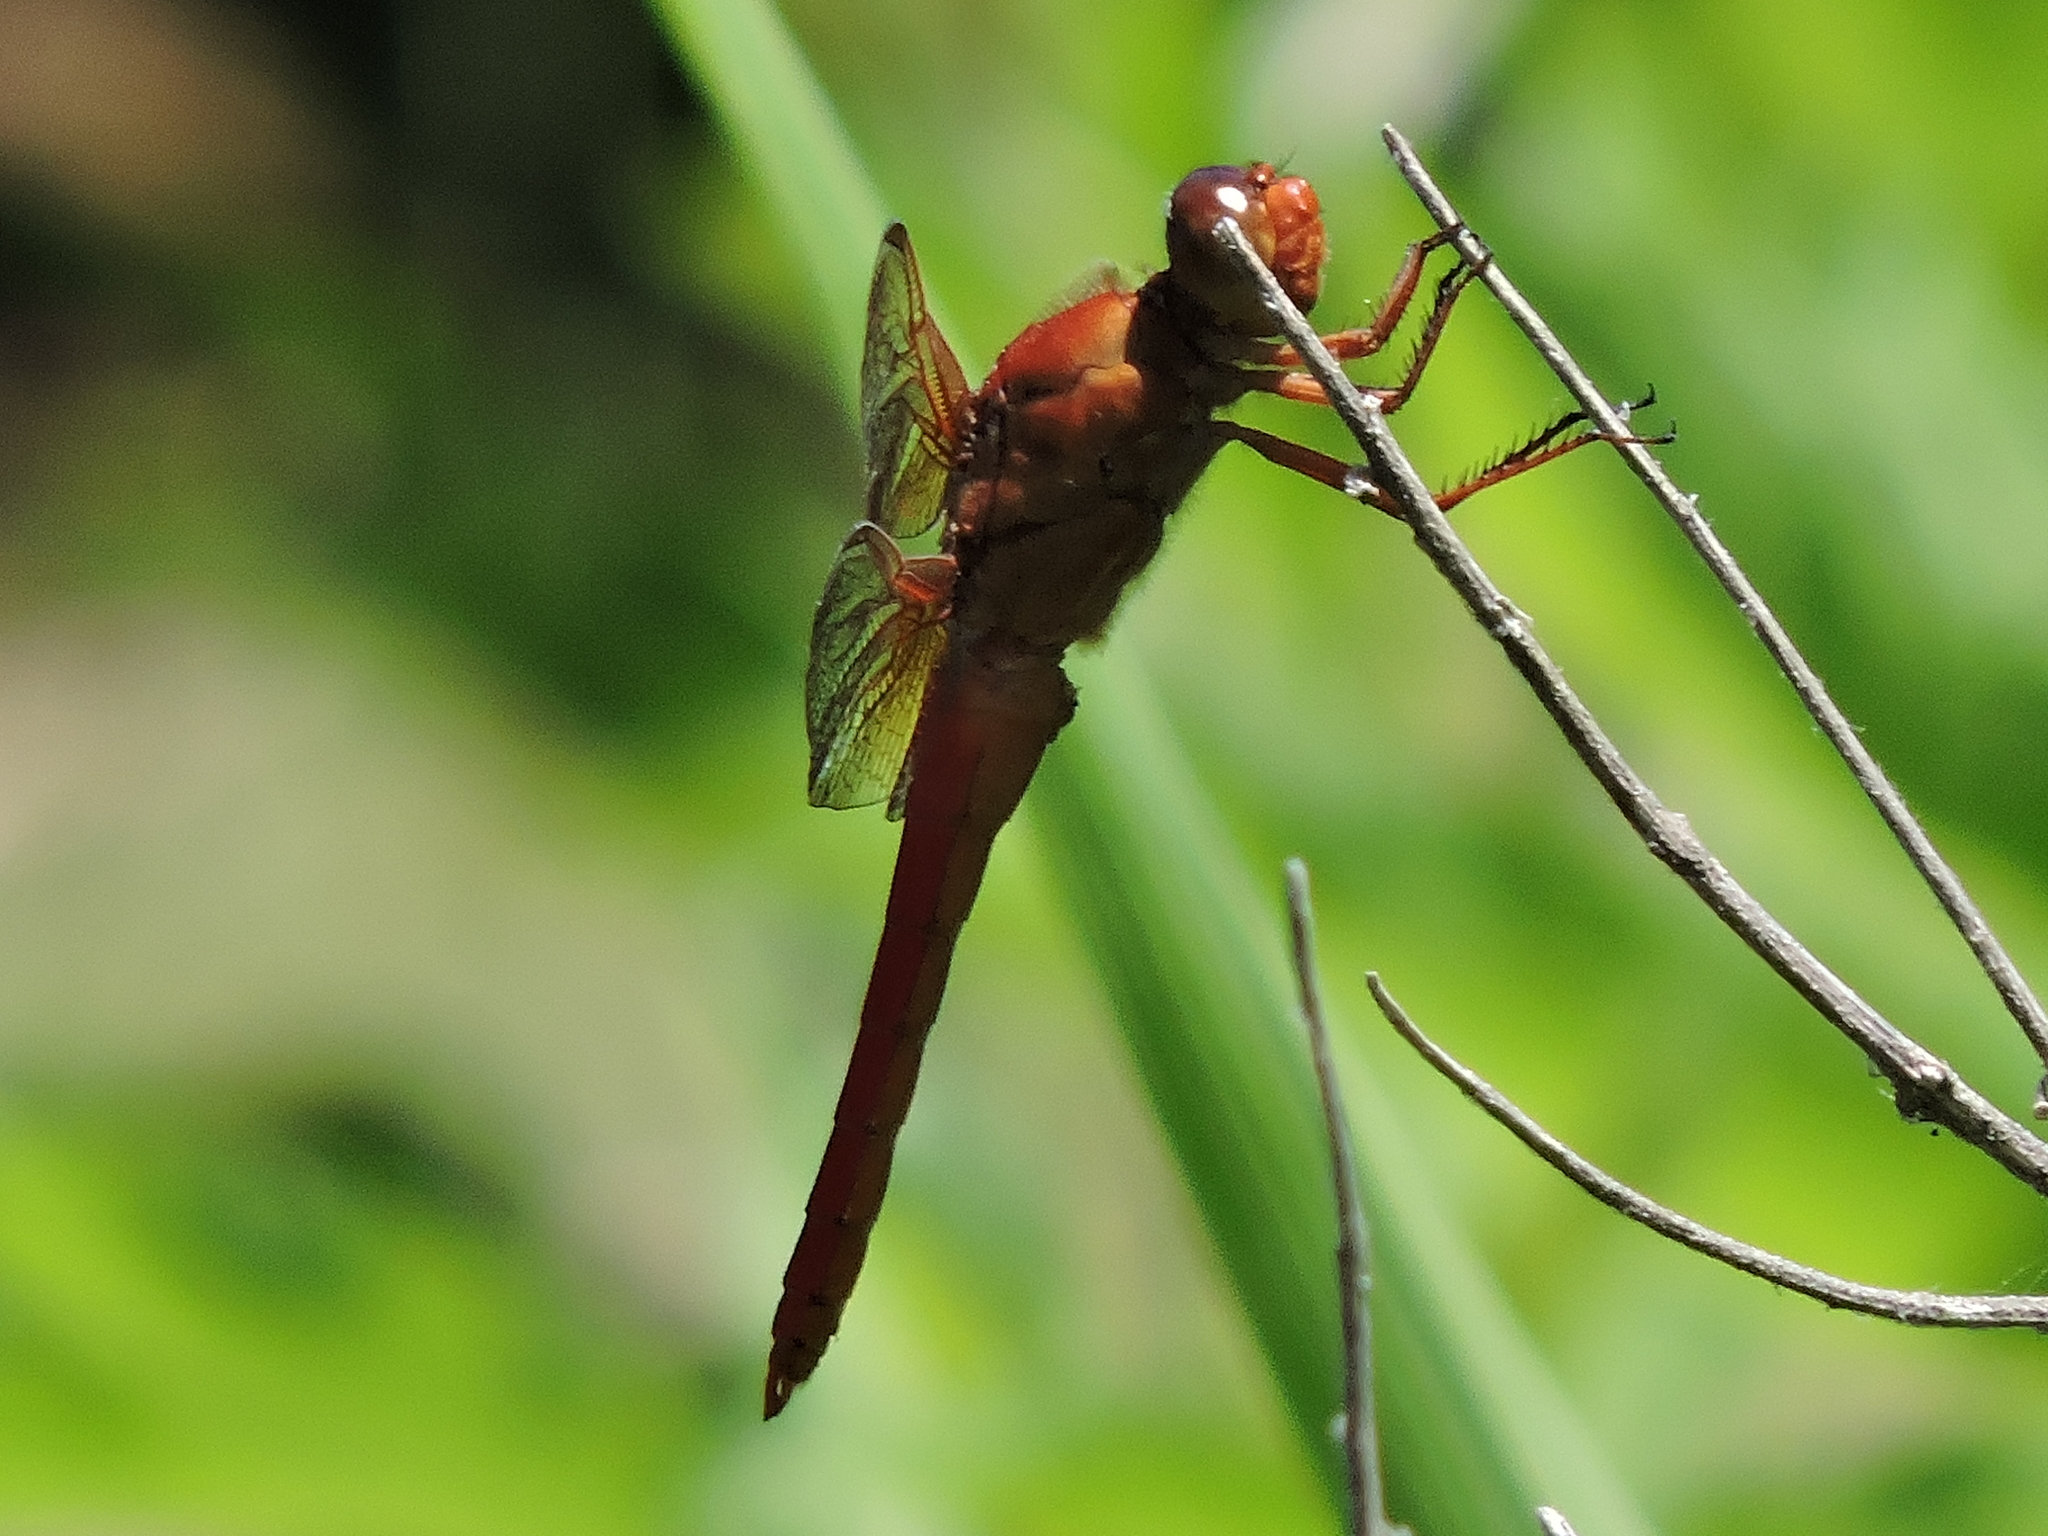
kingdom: Animalia
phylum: Arthropoda
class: Insecta
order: Odonata
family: Libellulidae
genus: Libellula
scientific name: Libellula croceipennis
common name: Neon skimmer
